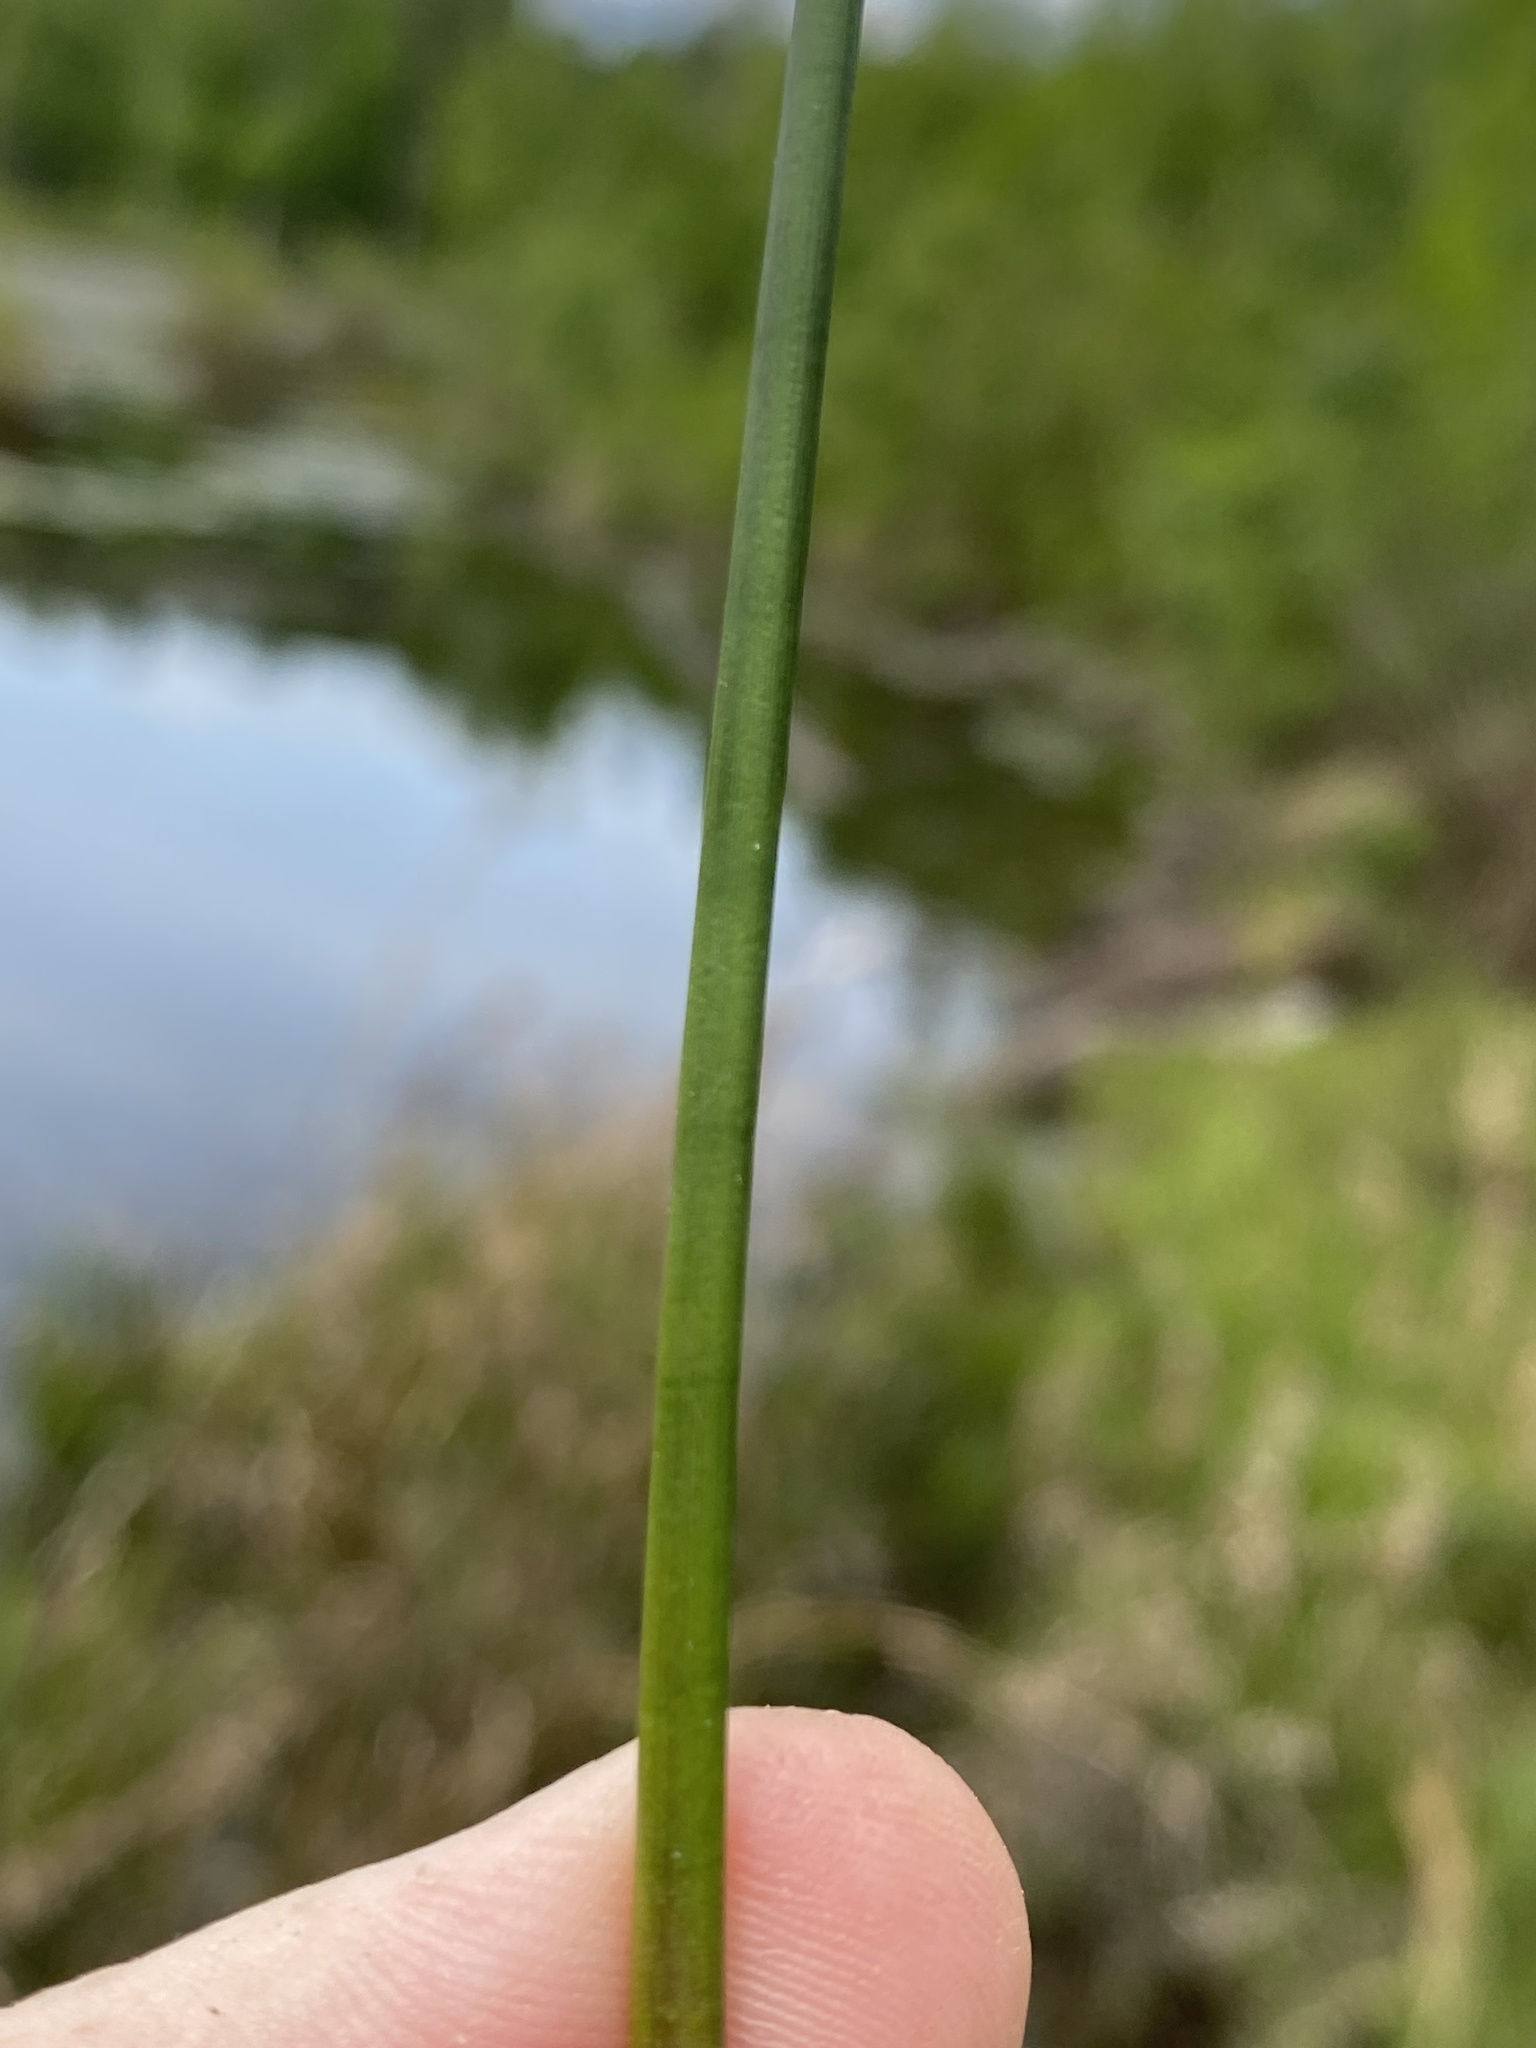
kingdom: Plantae
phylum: Tracheophyta
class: Liliopsida
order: Poales
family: Juncaceae
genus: Juncus
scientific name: Juncus trigonocarpus
